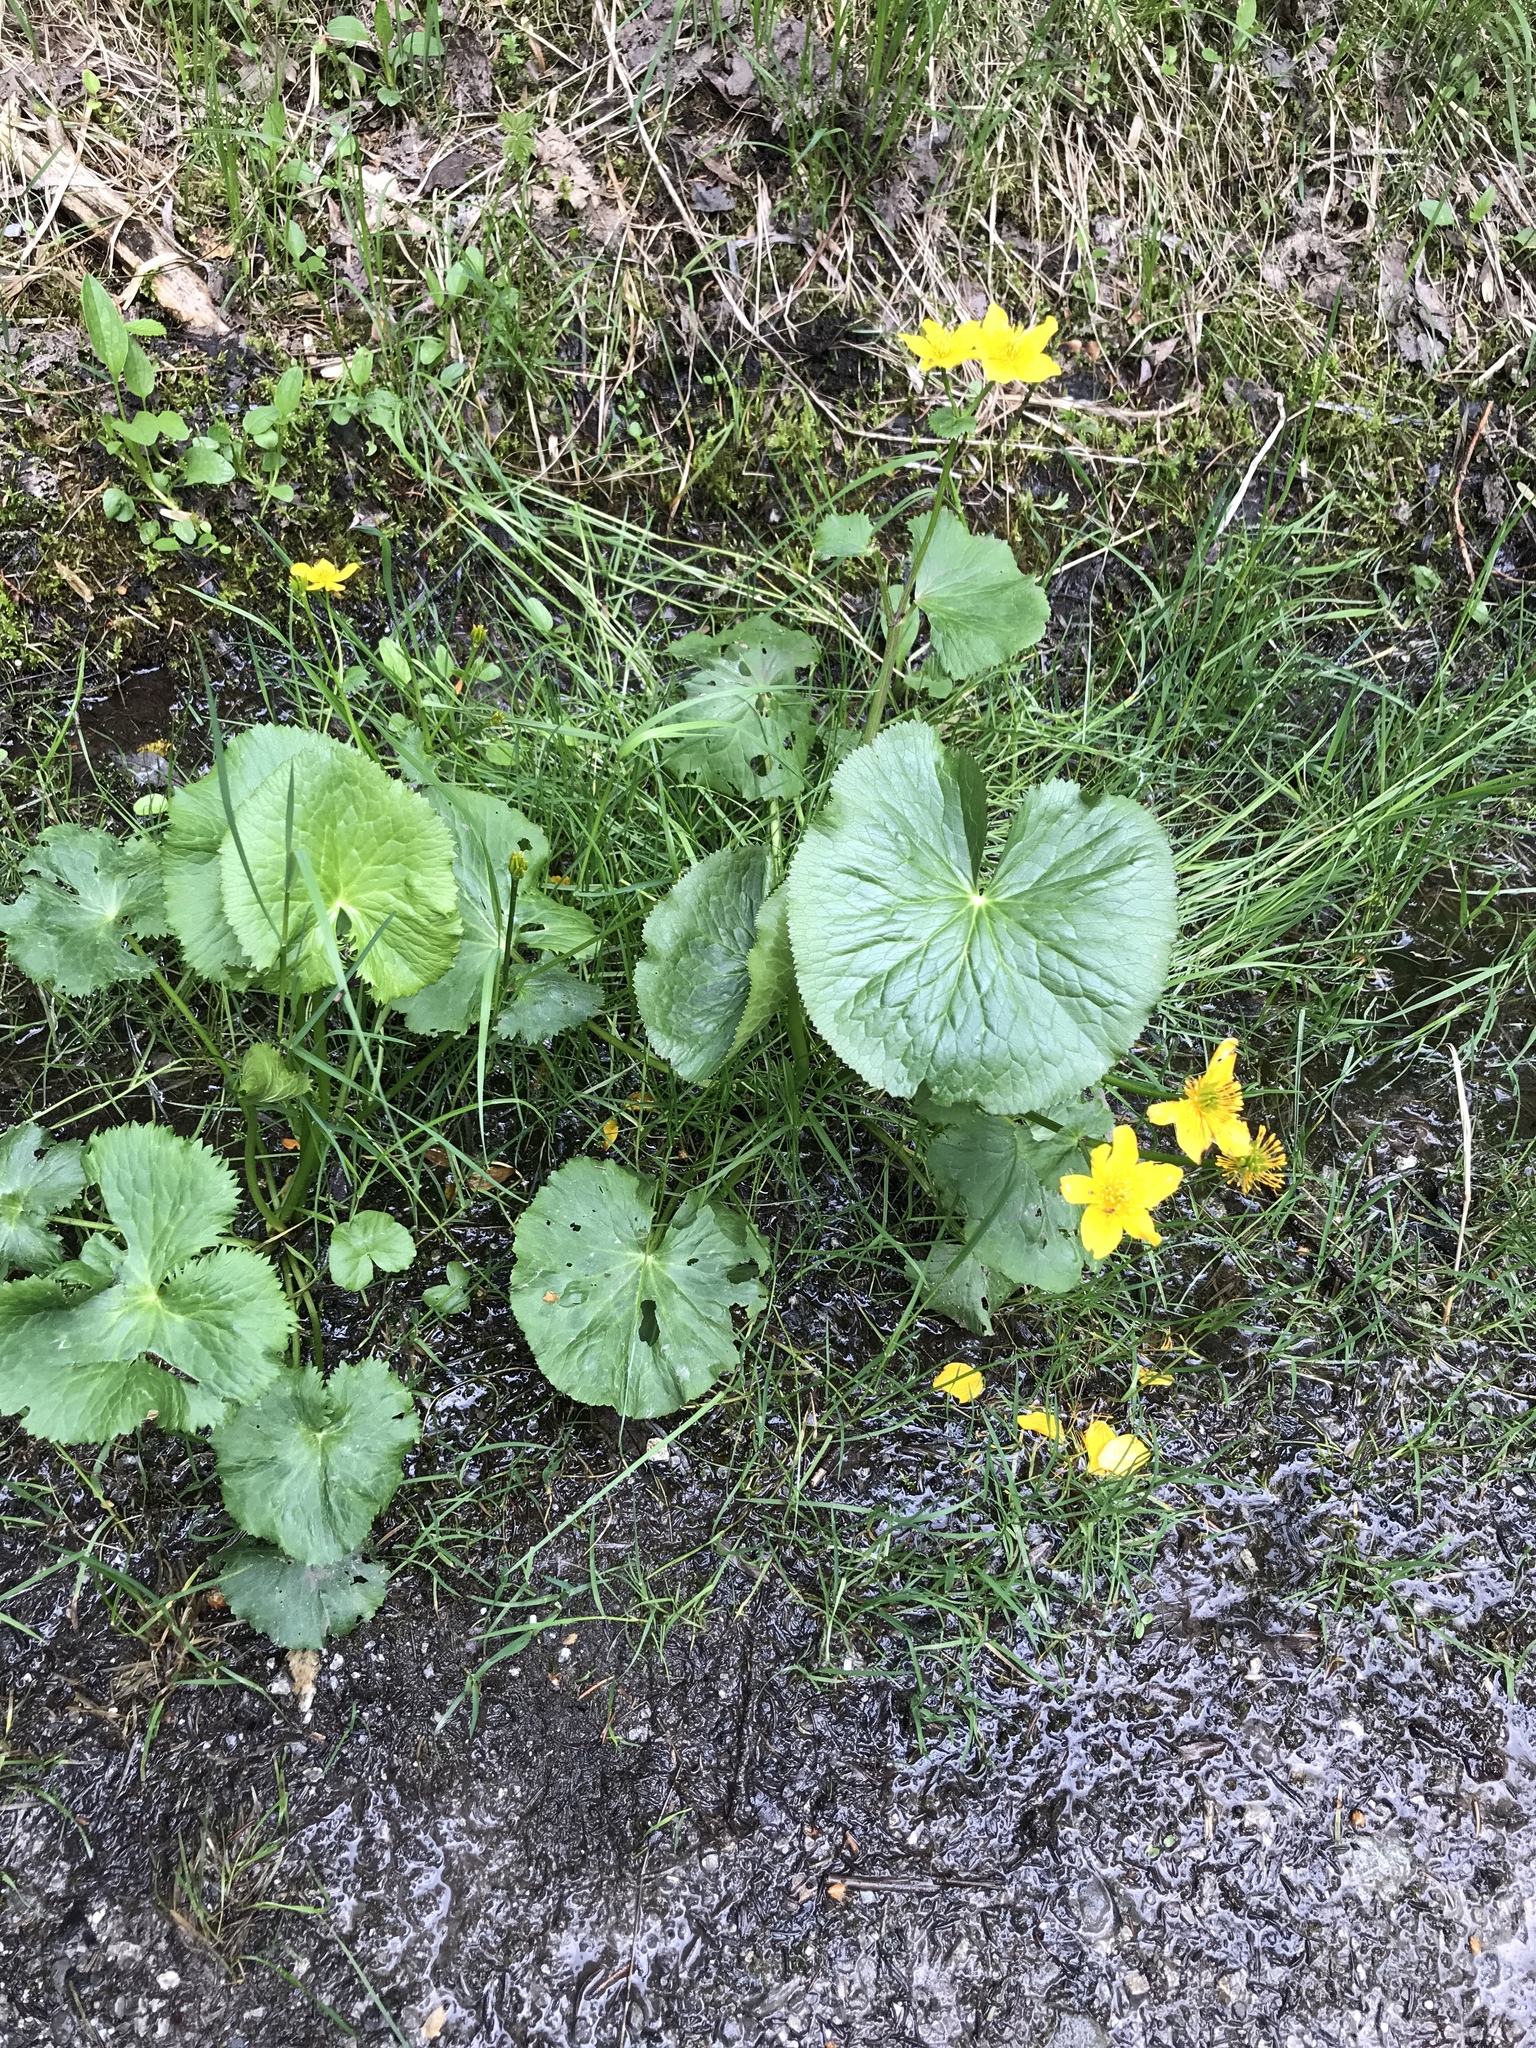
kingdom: Plantae
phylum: Tracheophyta
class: Magnoliopsida
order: Ranunculales
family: Ranunculaceae
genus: Caltha
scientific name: Caltha palustris
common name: Marsh marigold
